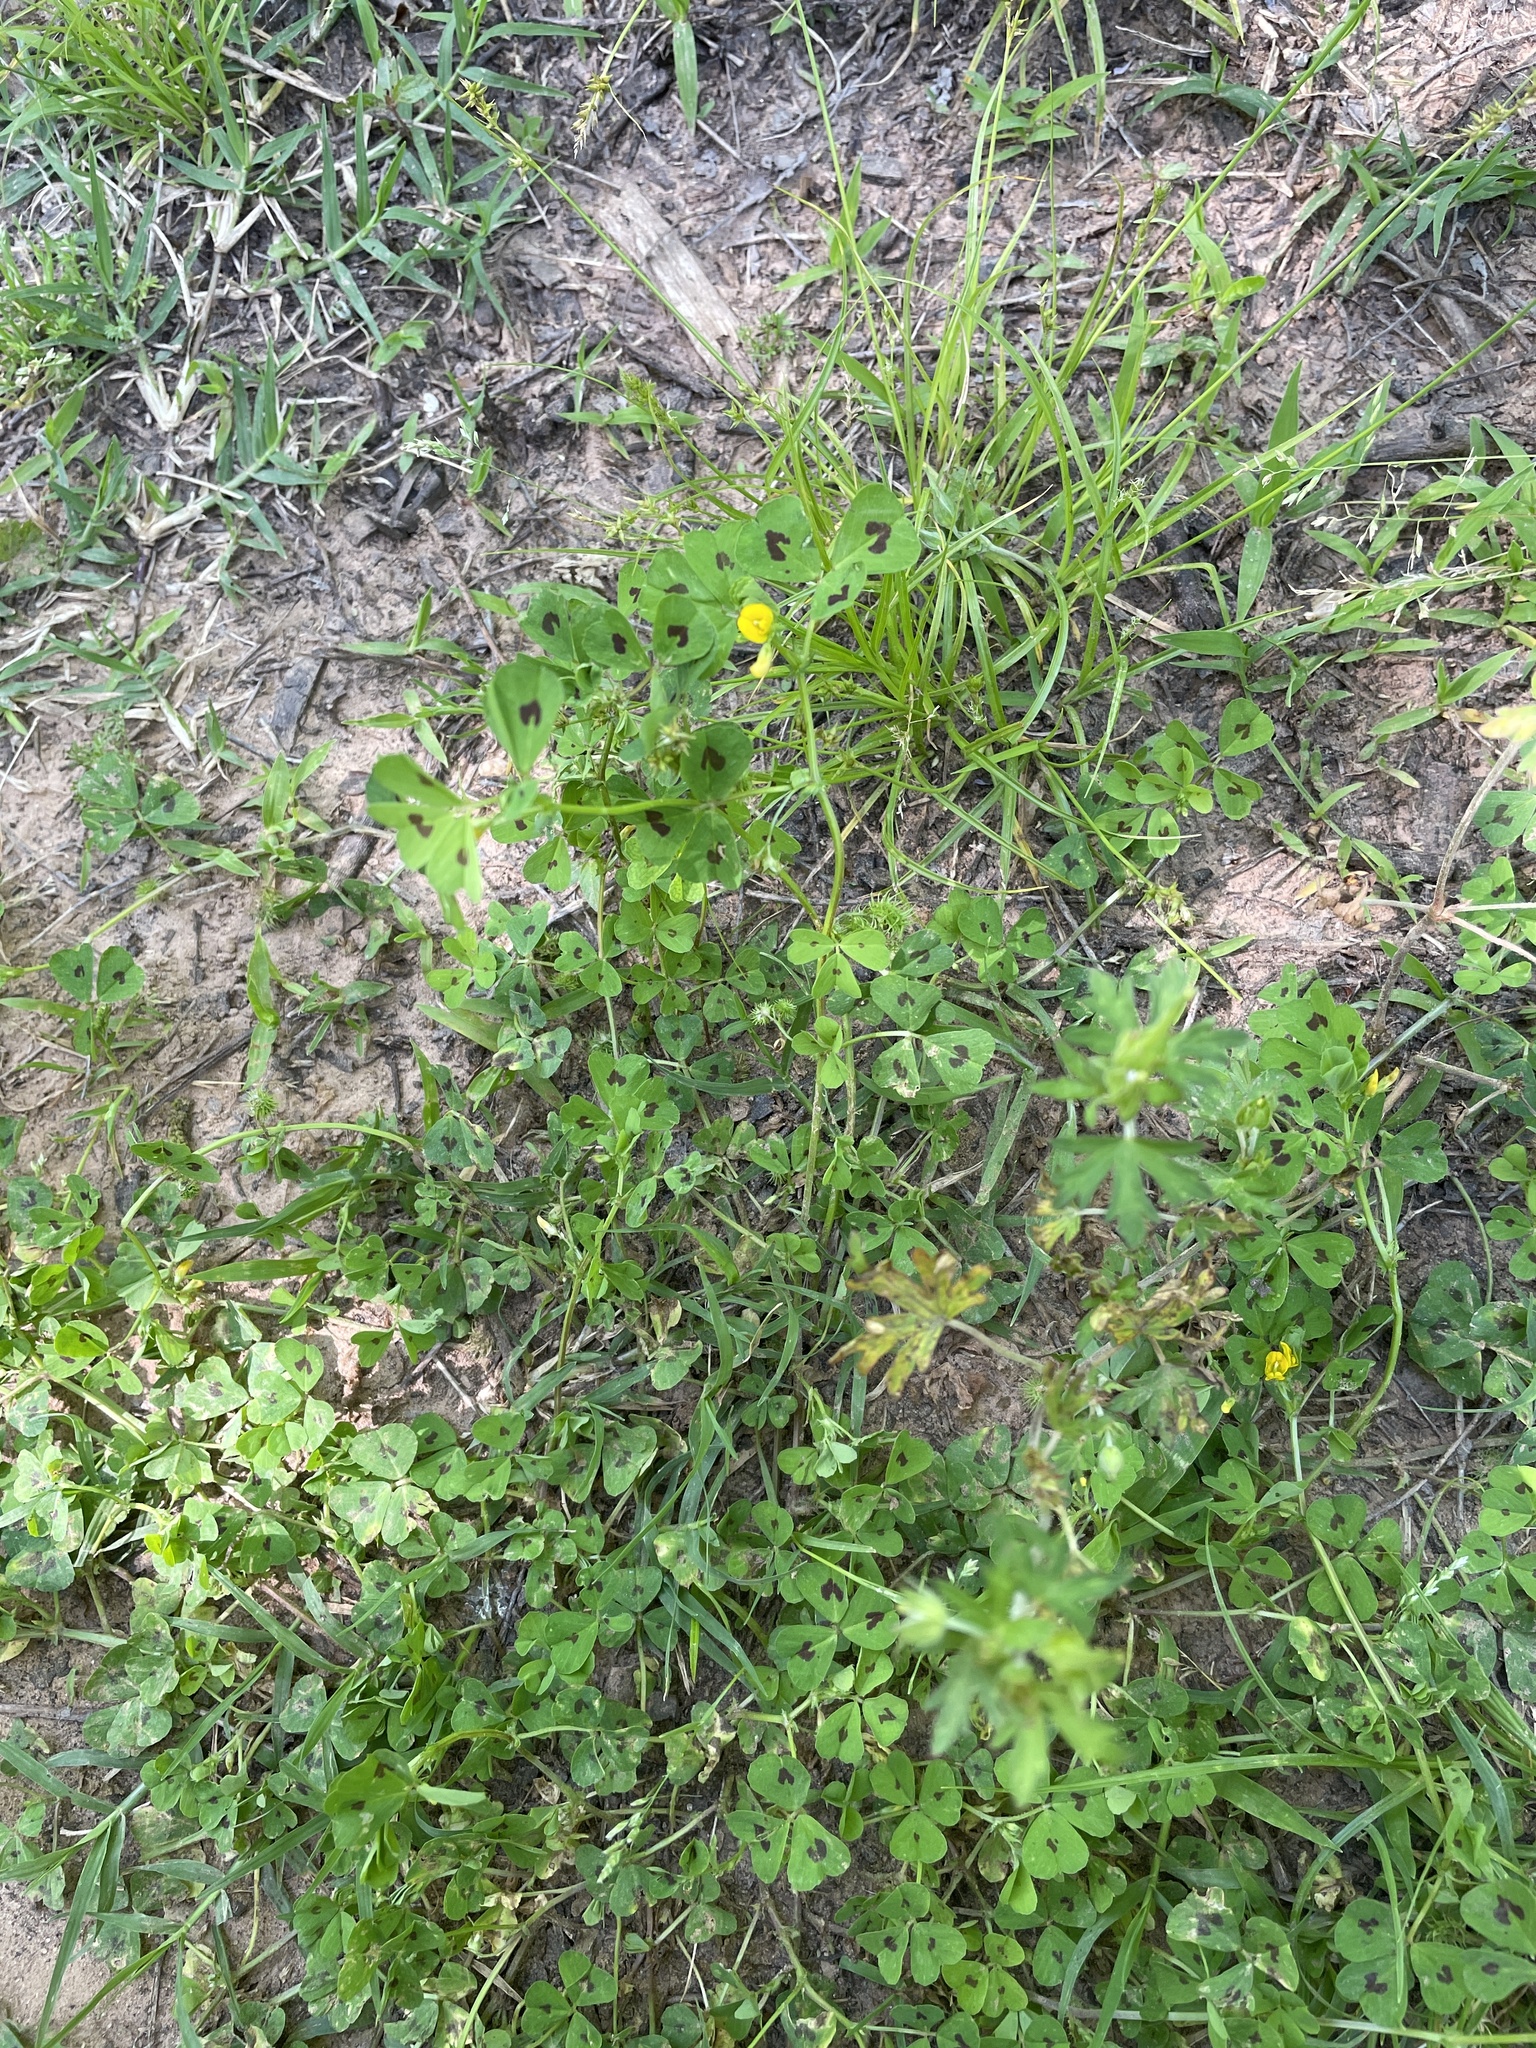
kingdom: Plantae
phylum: Tracheophyta
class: Magnoliopsida
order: Fabales
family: Fabaceae
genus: Medicago
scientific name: Medicago arabica
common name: Spotted medick
